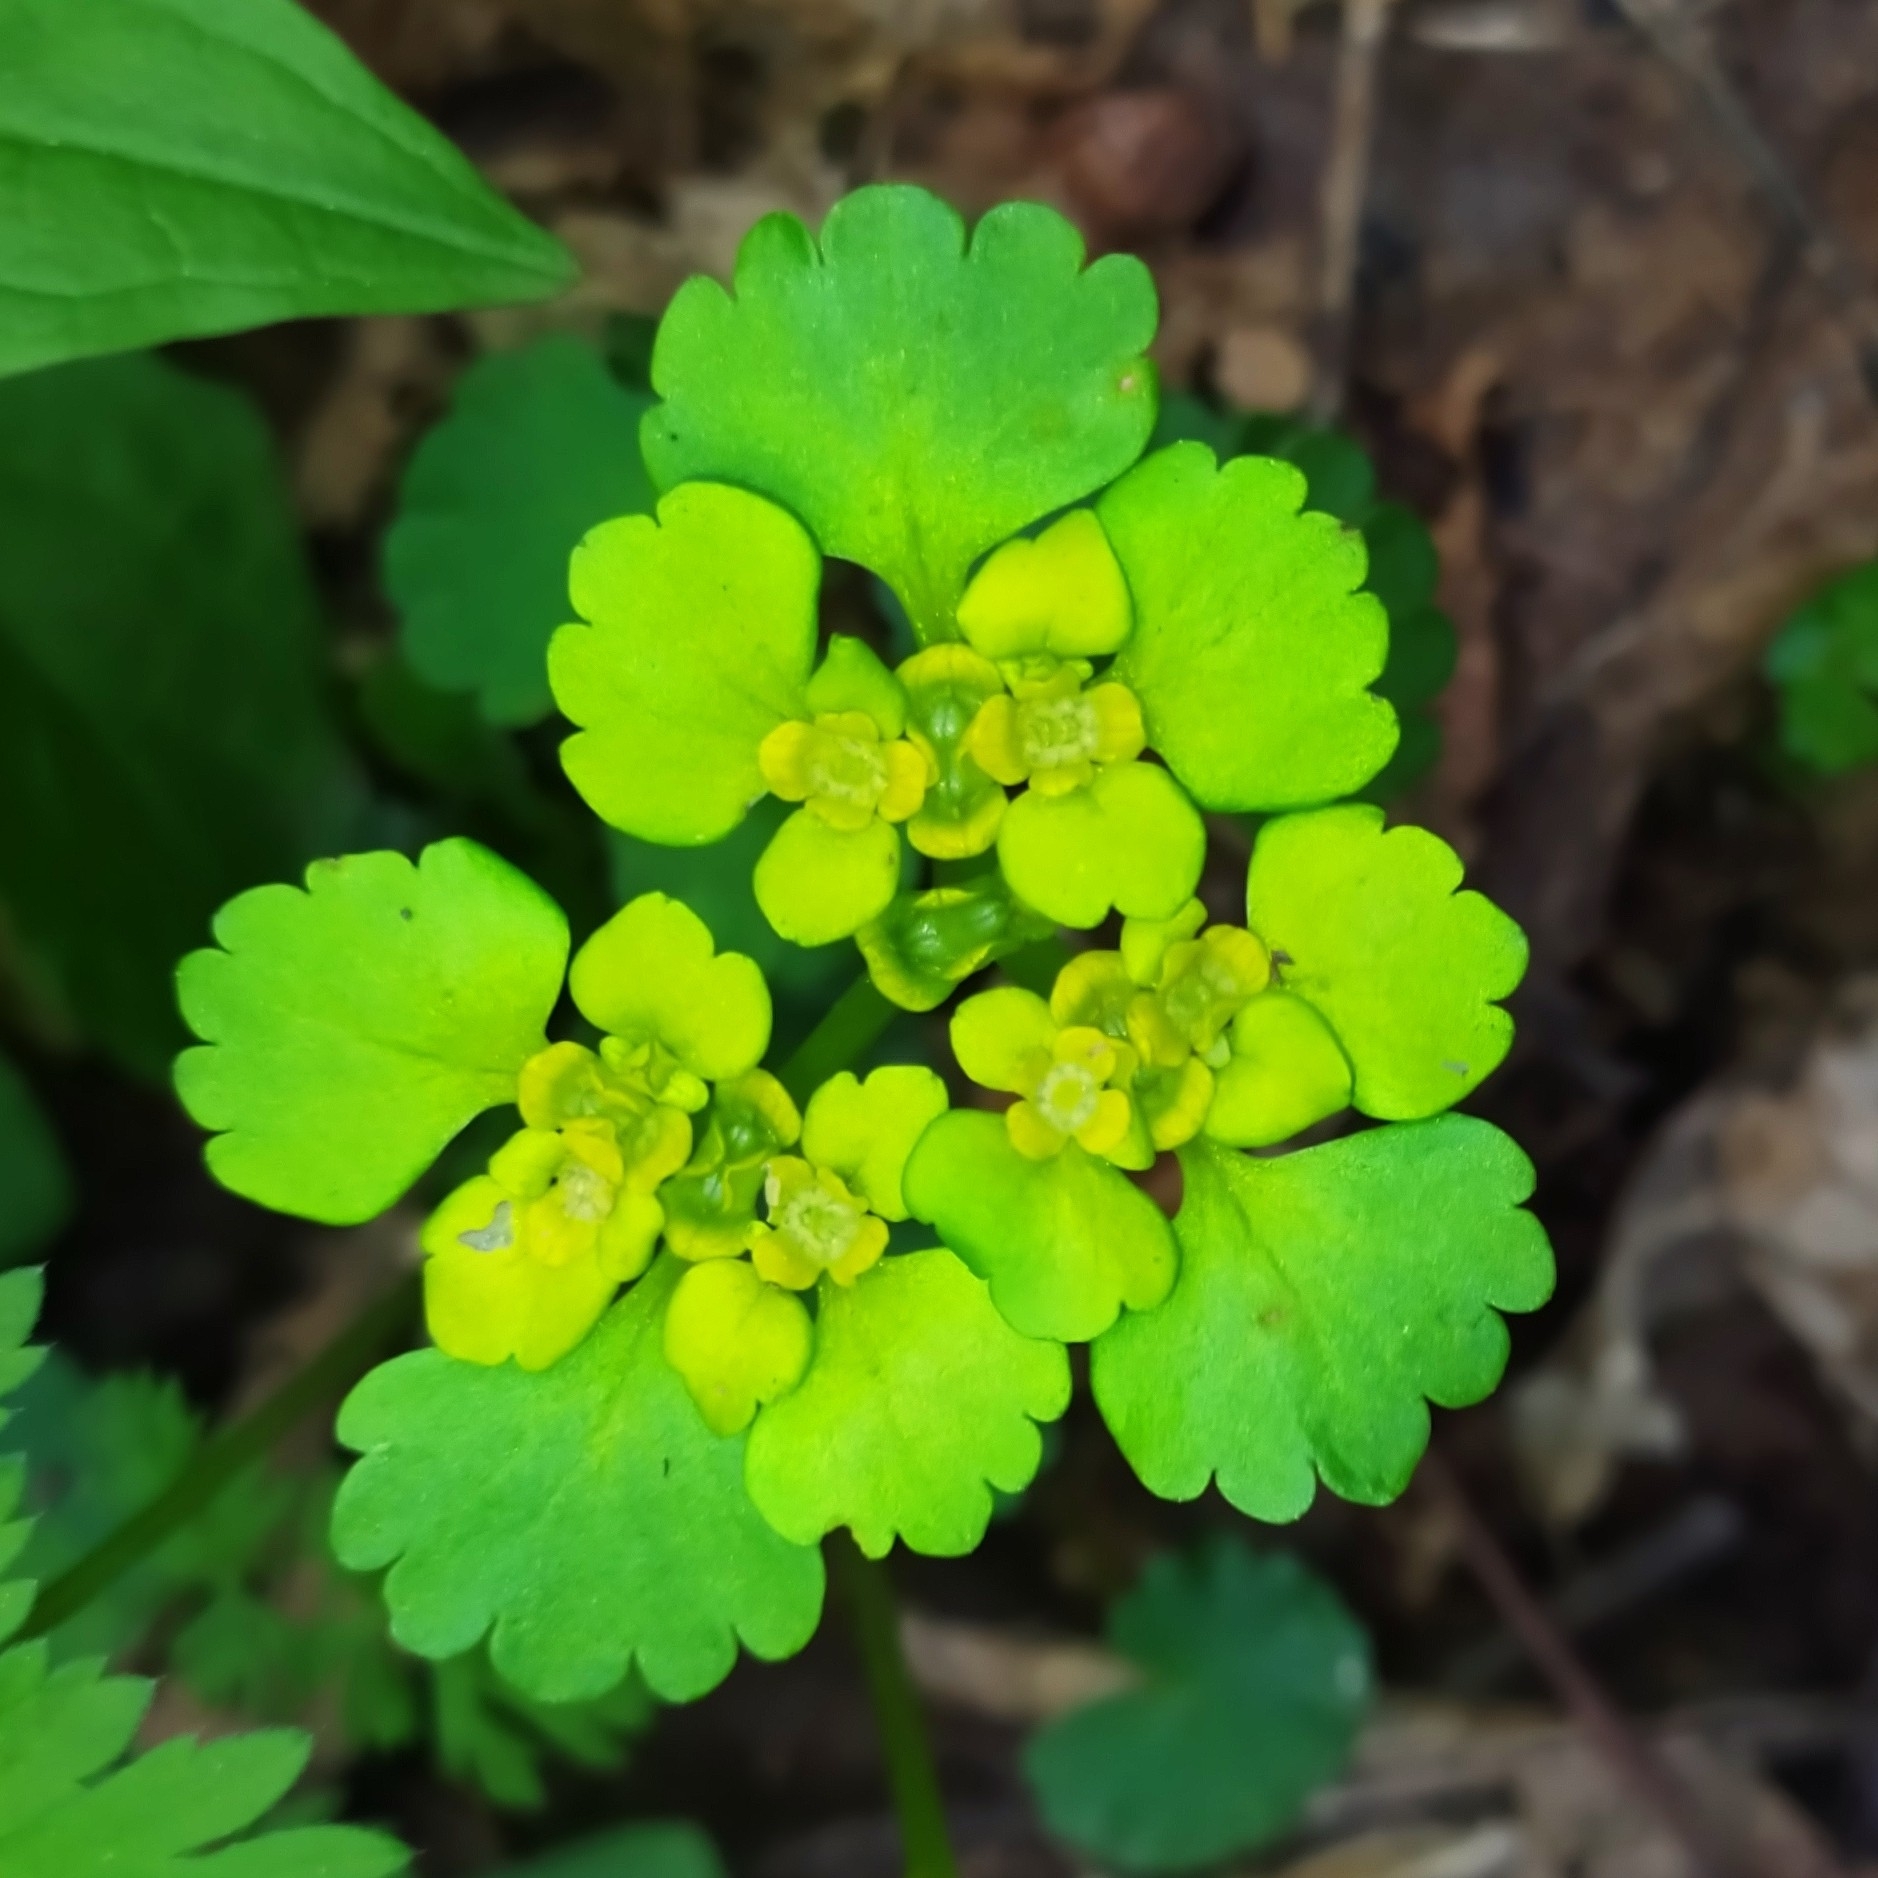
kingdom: Plantae
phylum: Tracheophyta
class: Magnoliopsida
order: Saxifragales
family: Saxifragaceae
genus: Chrysosplenium
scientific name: Chrysosplenium alternifolium
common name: Alternate-leaved golden-saxifrage
